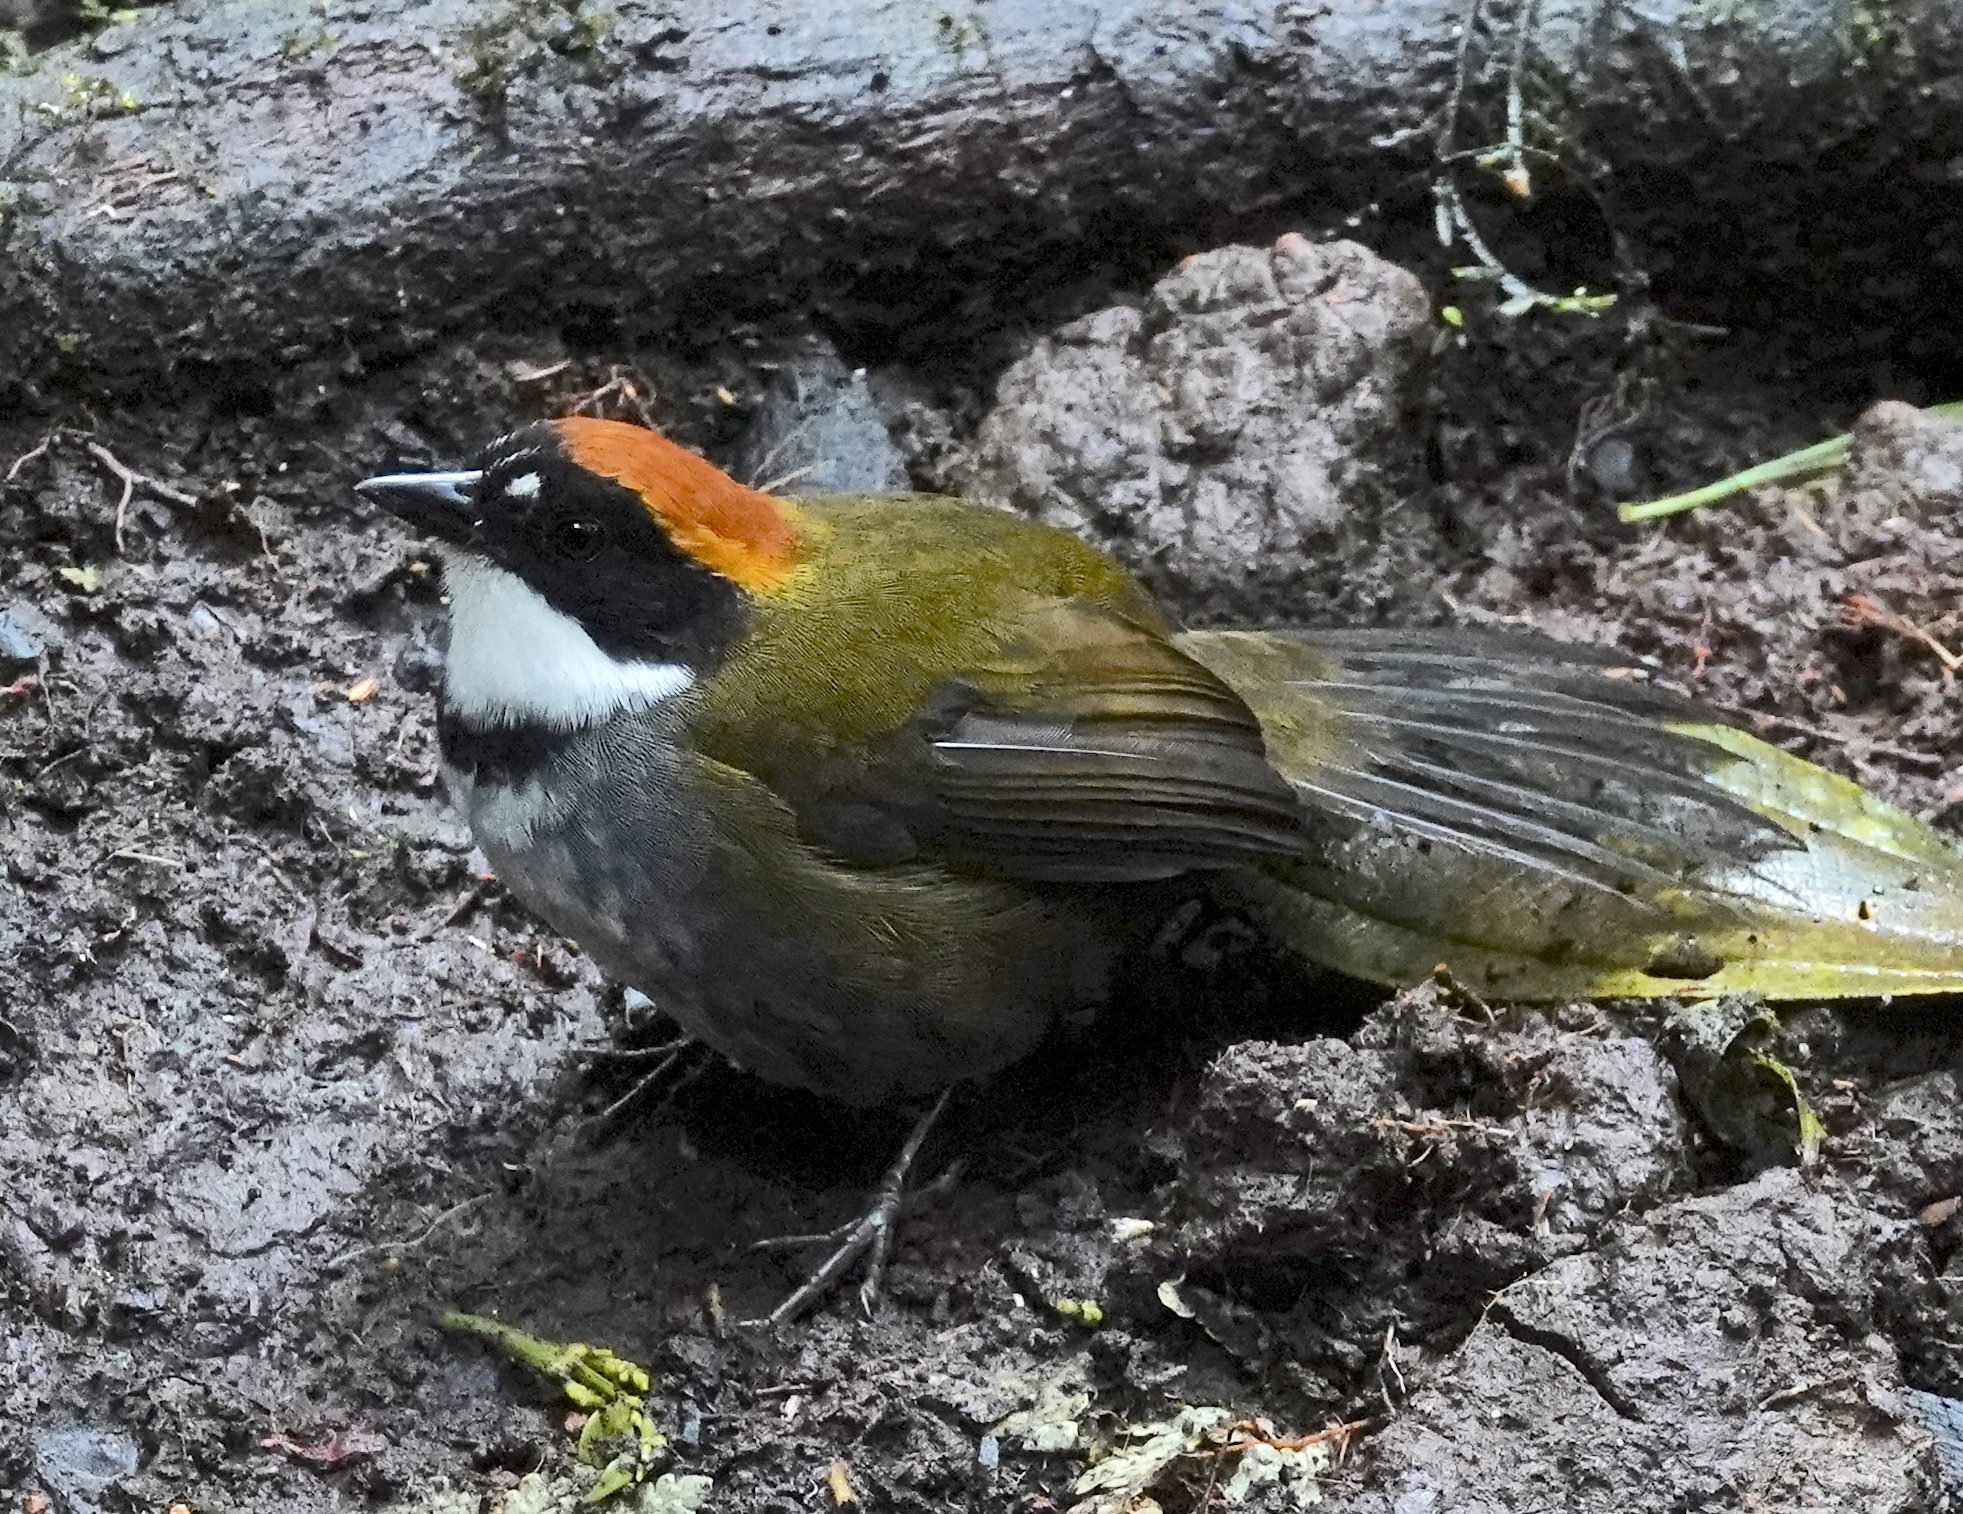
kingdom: Animalia
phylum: Chordata
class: Aves
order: Passeriformes
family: Passerellidae
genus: Arremon
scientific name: Arremon brunneinucha
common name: Chestnut-capped brushfinch
